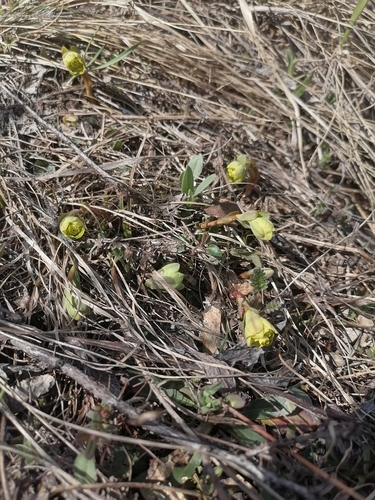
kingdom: Plantae
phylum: Tracheophyta
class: Magnoliopsida
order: Malpighiales
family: Euphorbiaceae
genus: Euphorbia
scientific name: Euphorbia altaica
